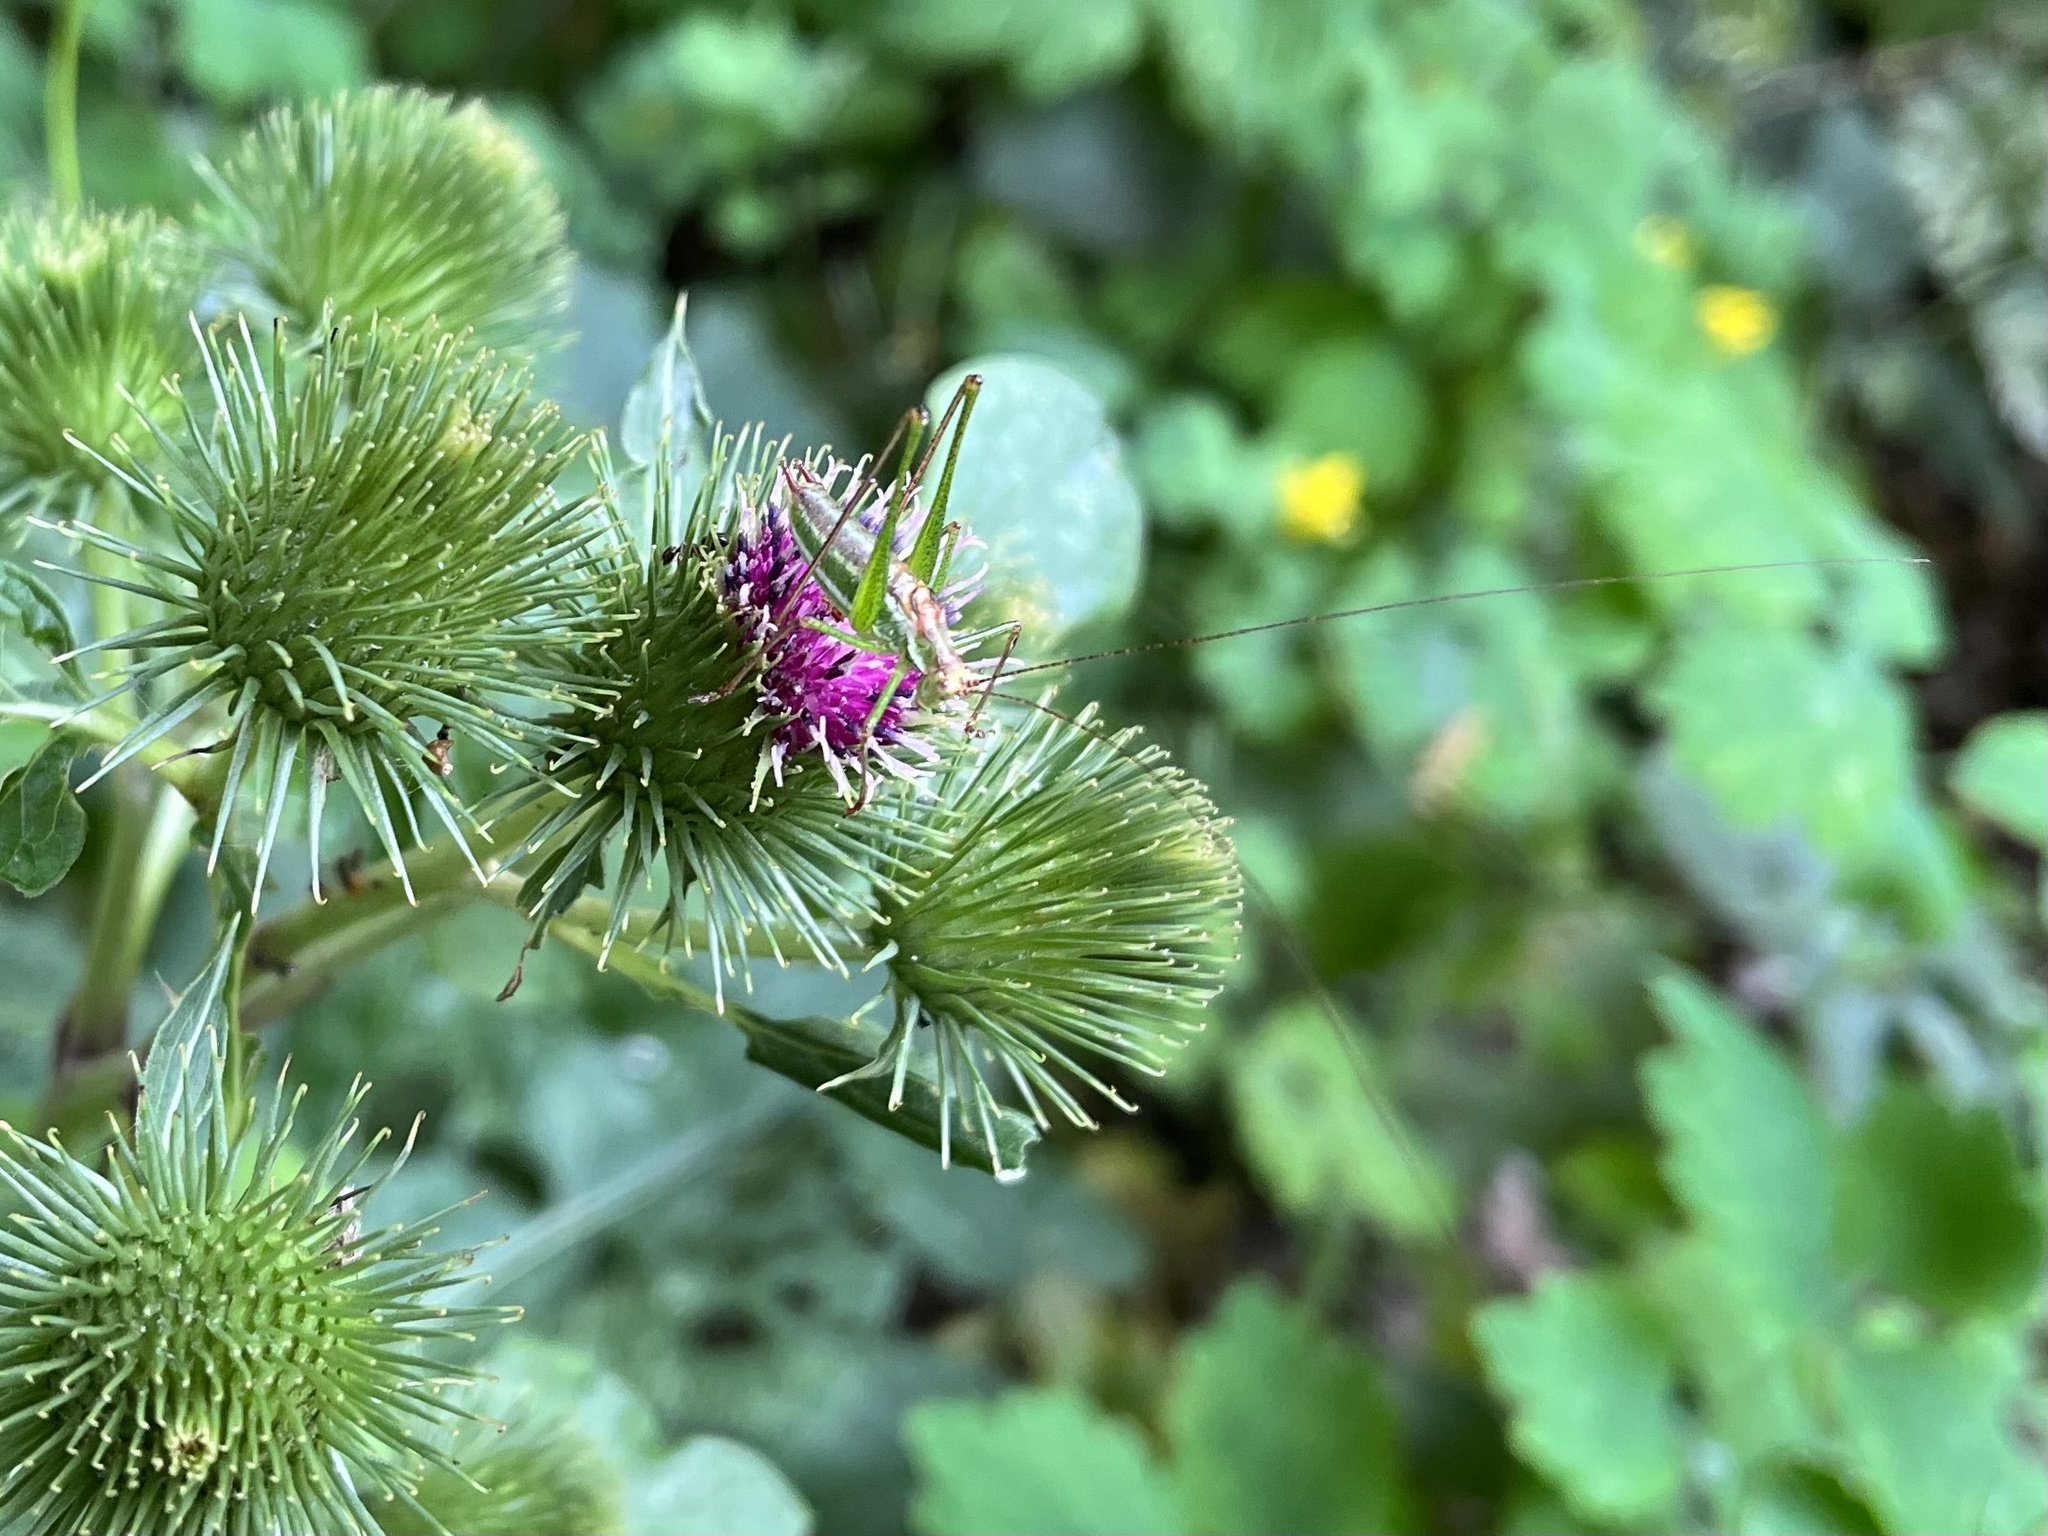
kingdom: Animalia
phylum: Arthropoda
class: Insecta
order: Orthoptera
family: Tettigoniidae
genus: Leptophyes
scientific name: Leptophyes albovittata
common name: Striped bush-cricket
